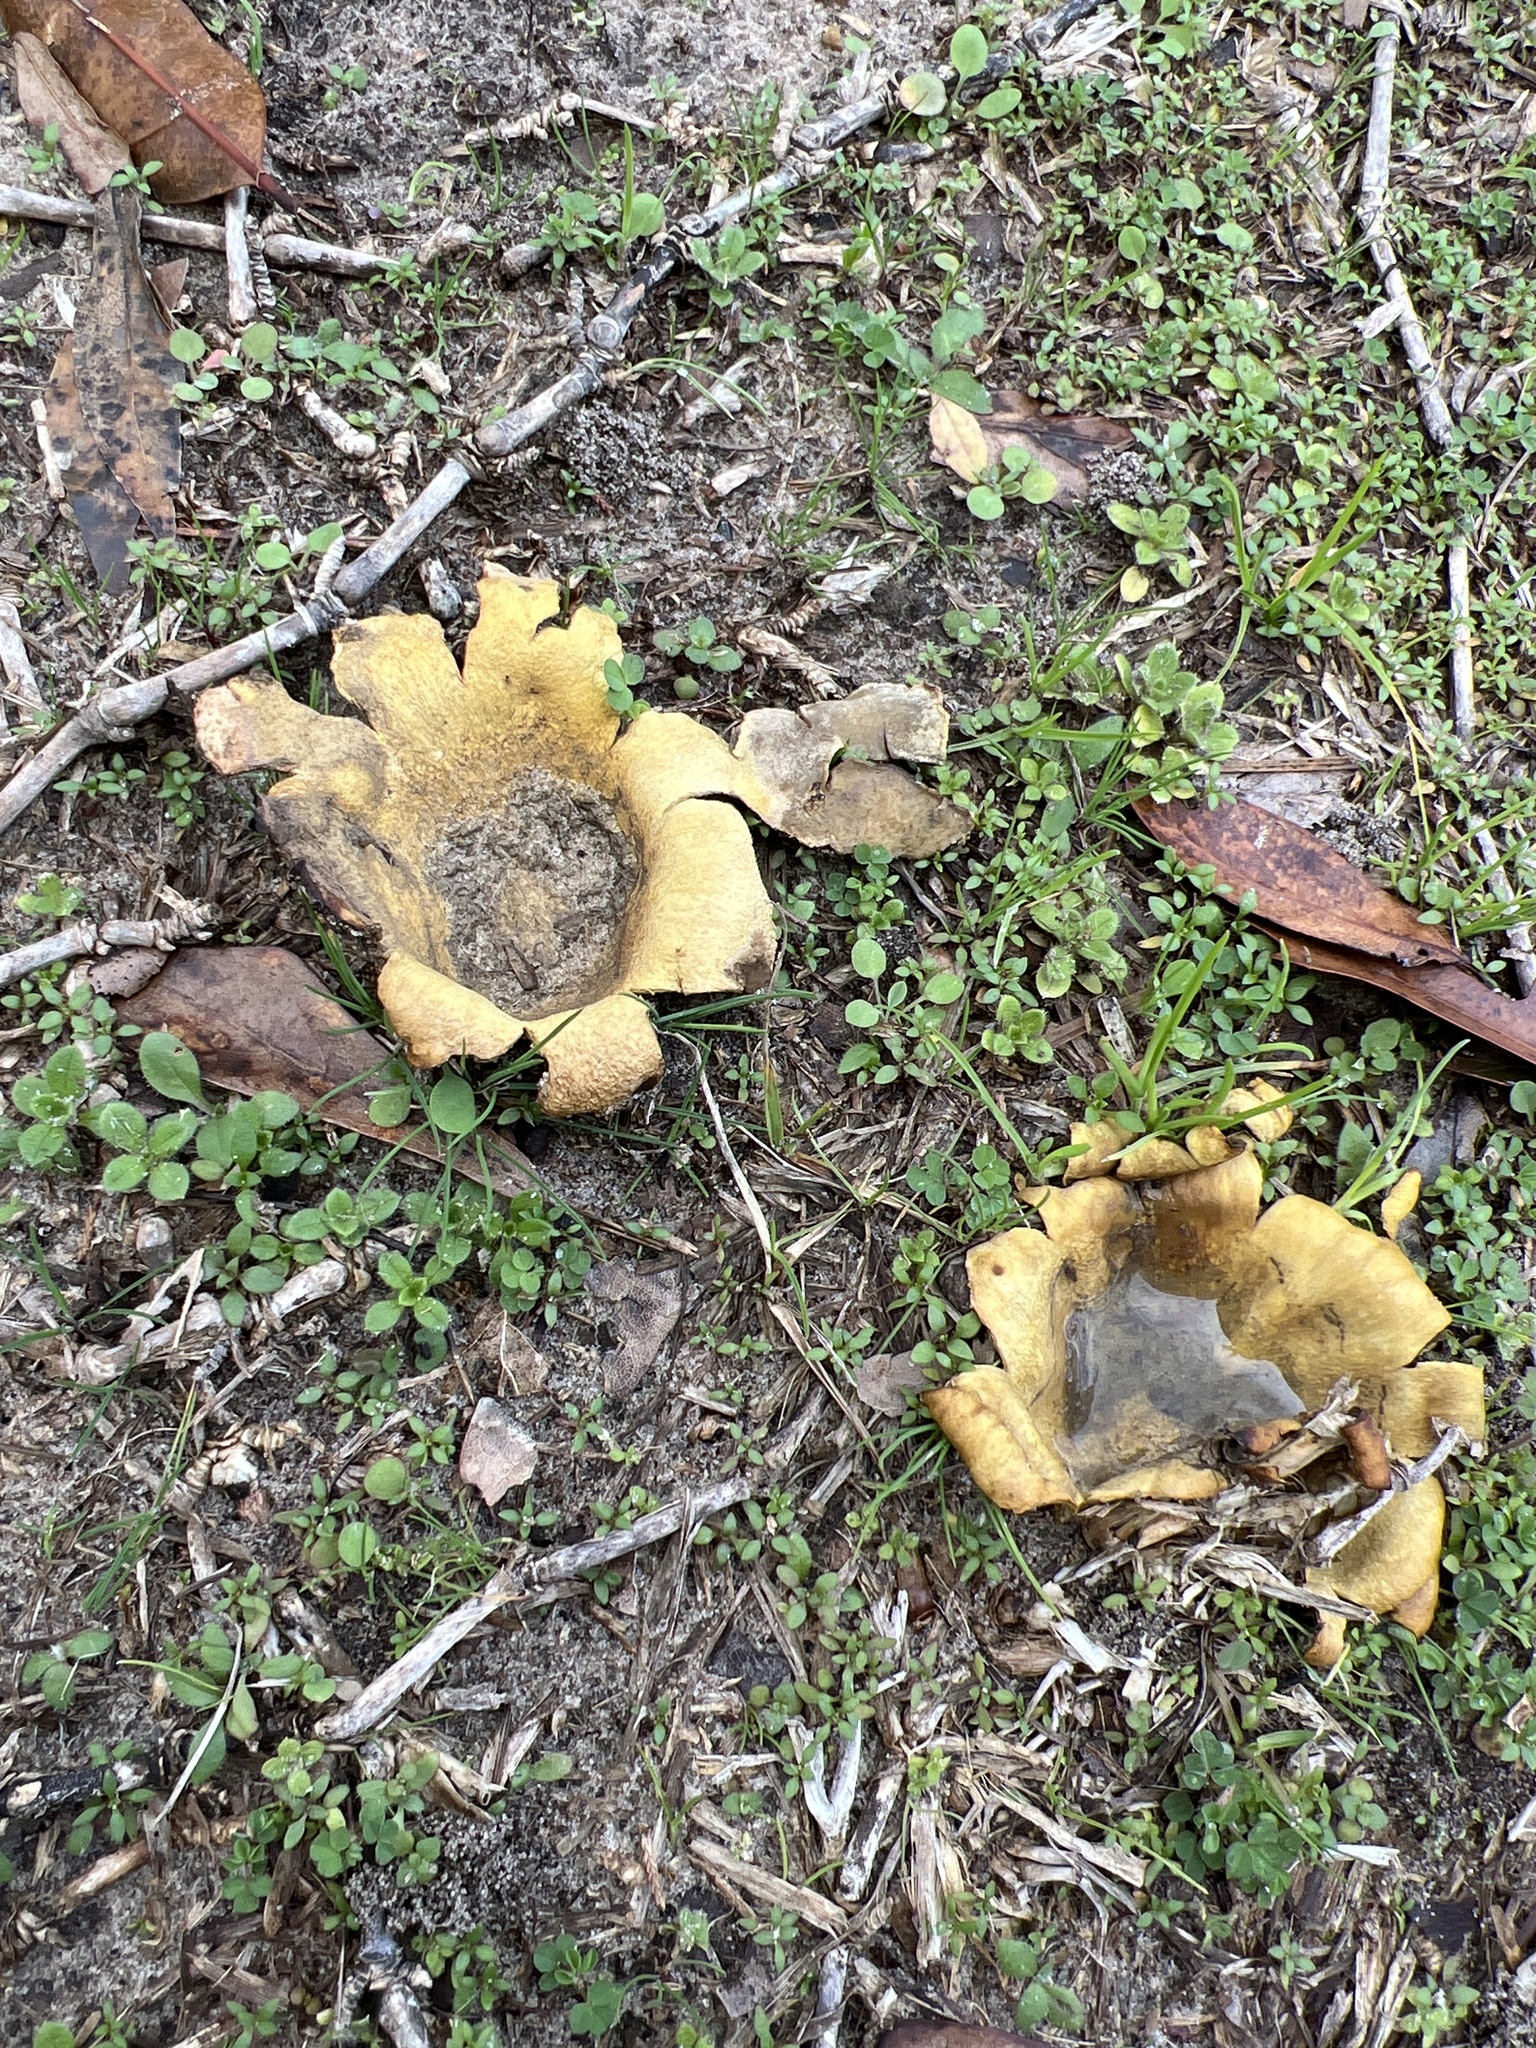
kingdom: Fungi
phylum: Basidiomycota
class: Agaricomycetes
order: Boletales
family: Sclerodermataceae
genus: Scleroderma
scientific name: Scleroderma polyrhizum
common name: Many-rooted earthball
